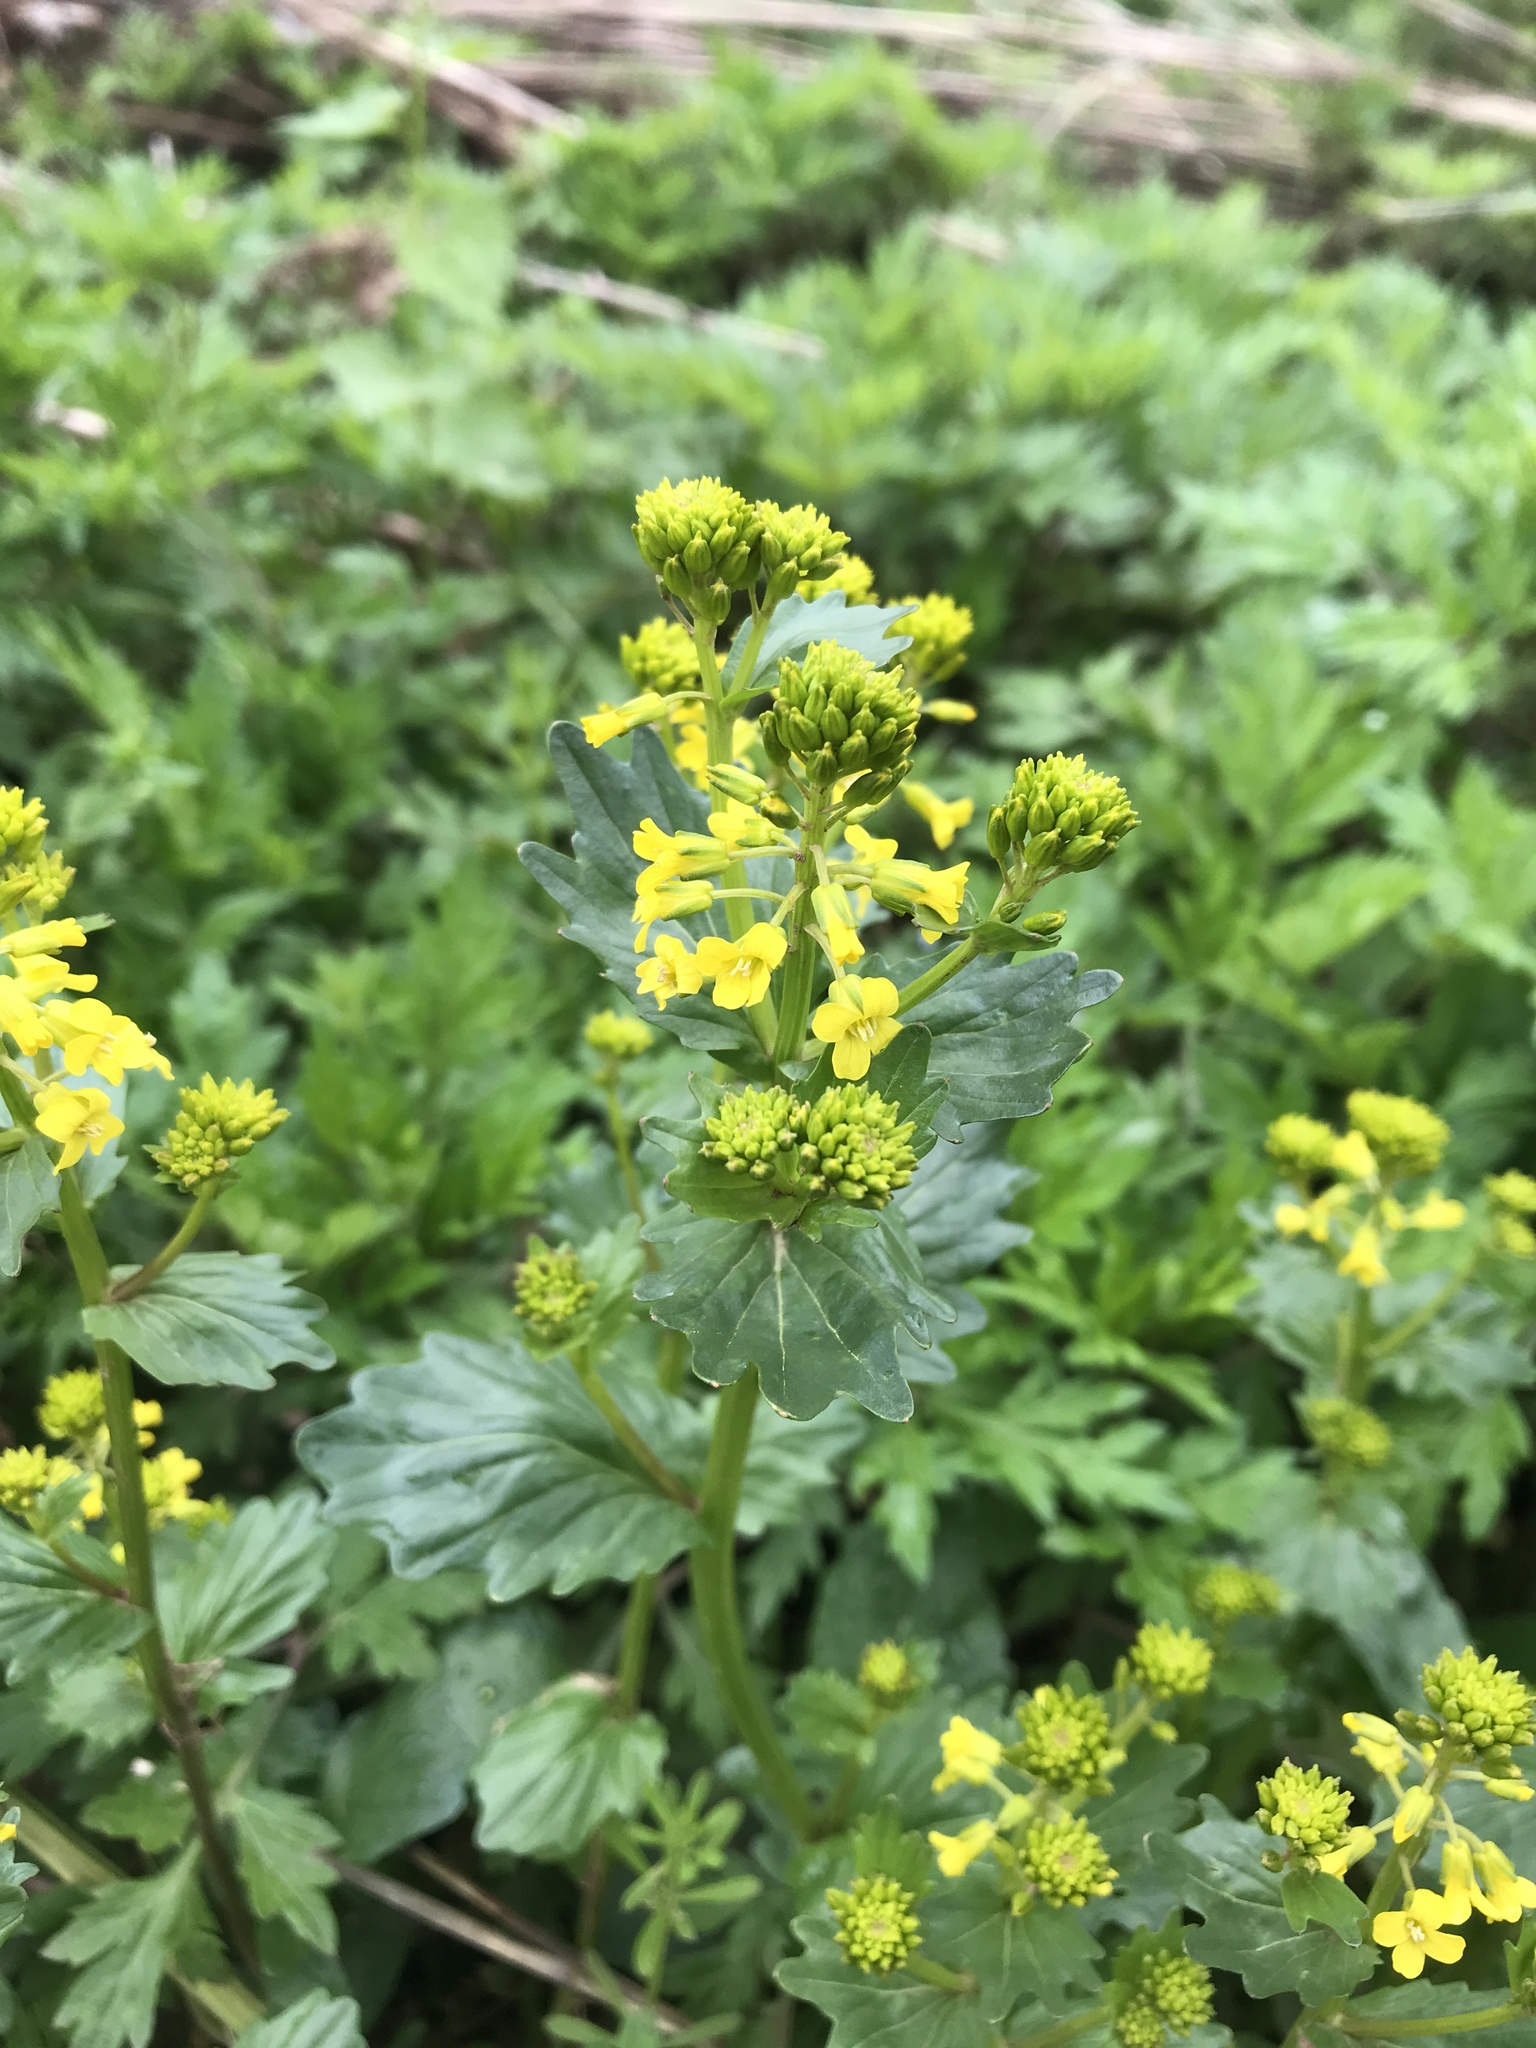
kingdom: Plantae
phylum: Tracheophyta
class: Magnoliopsida
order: Brassicales
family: Brassicaceae
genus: Barbarea
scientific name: Barbarea vulgaris
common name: Cressy-greens
